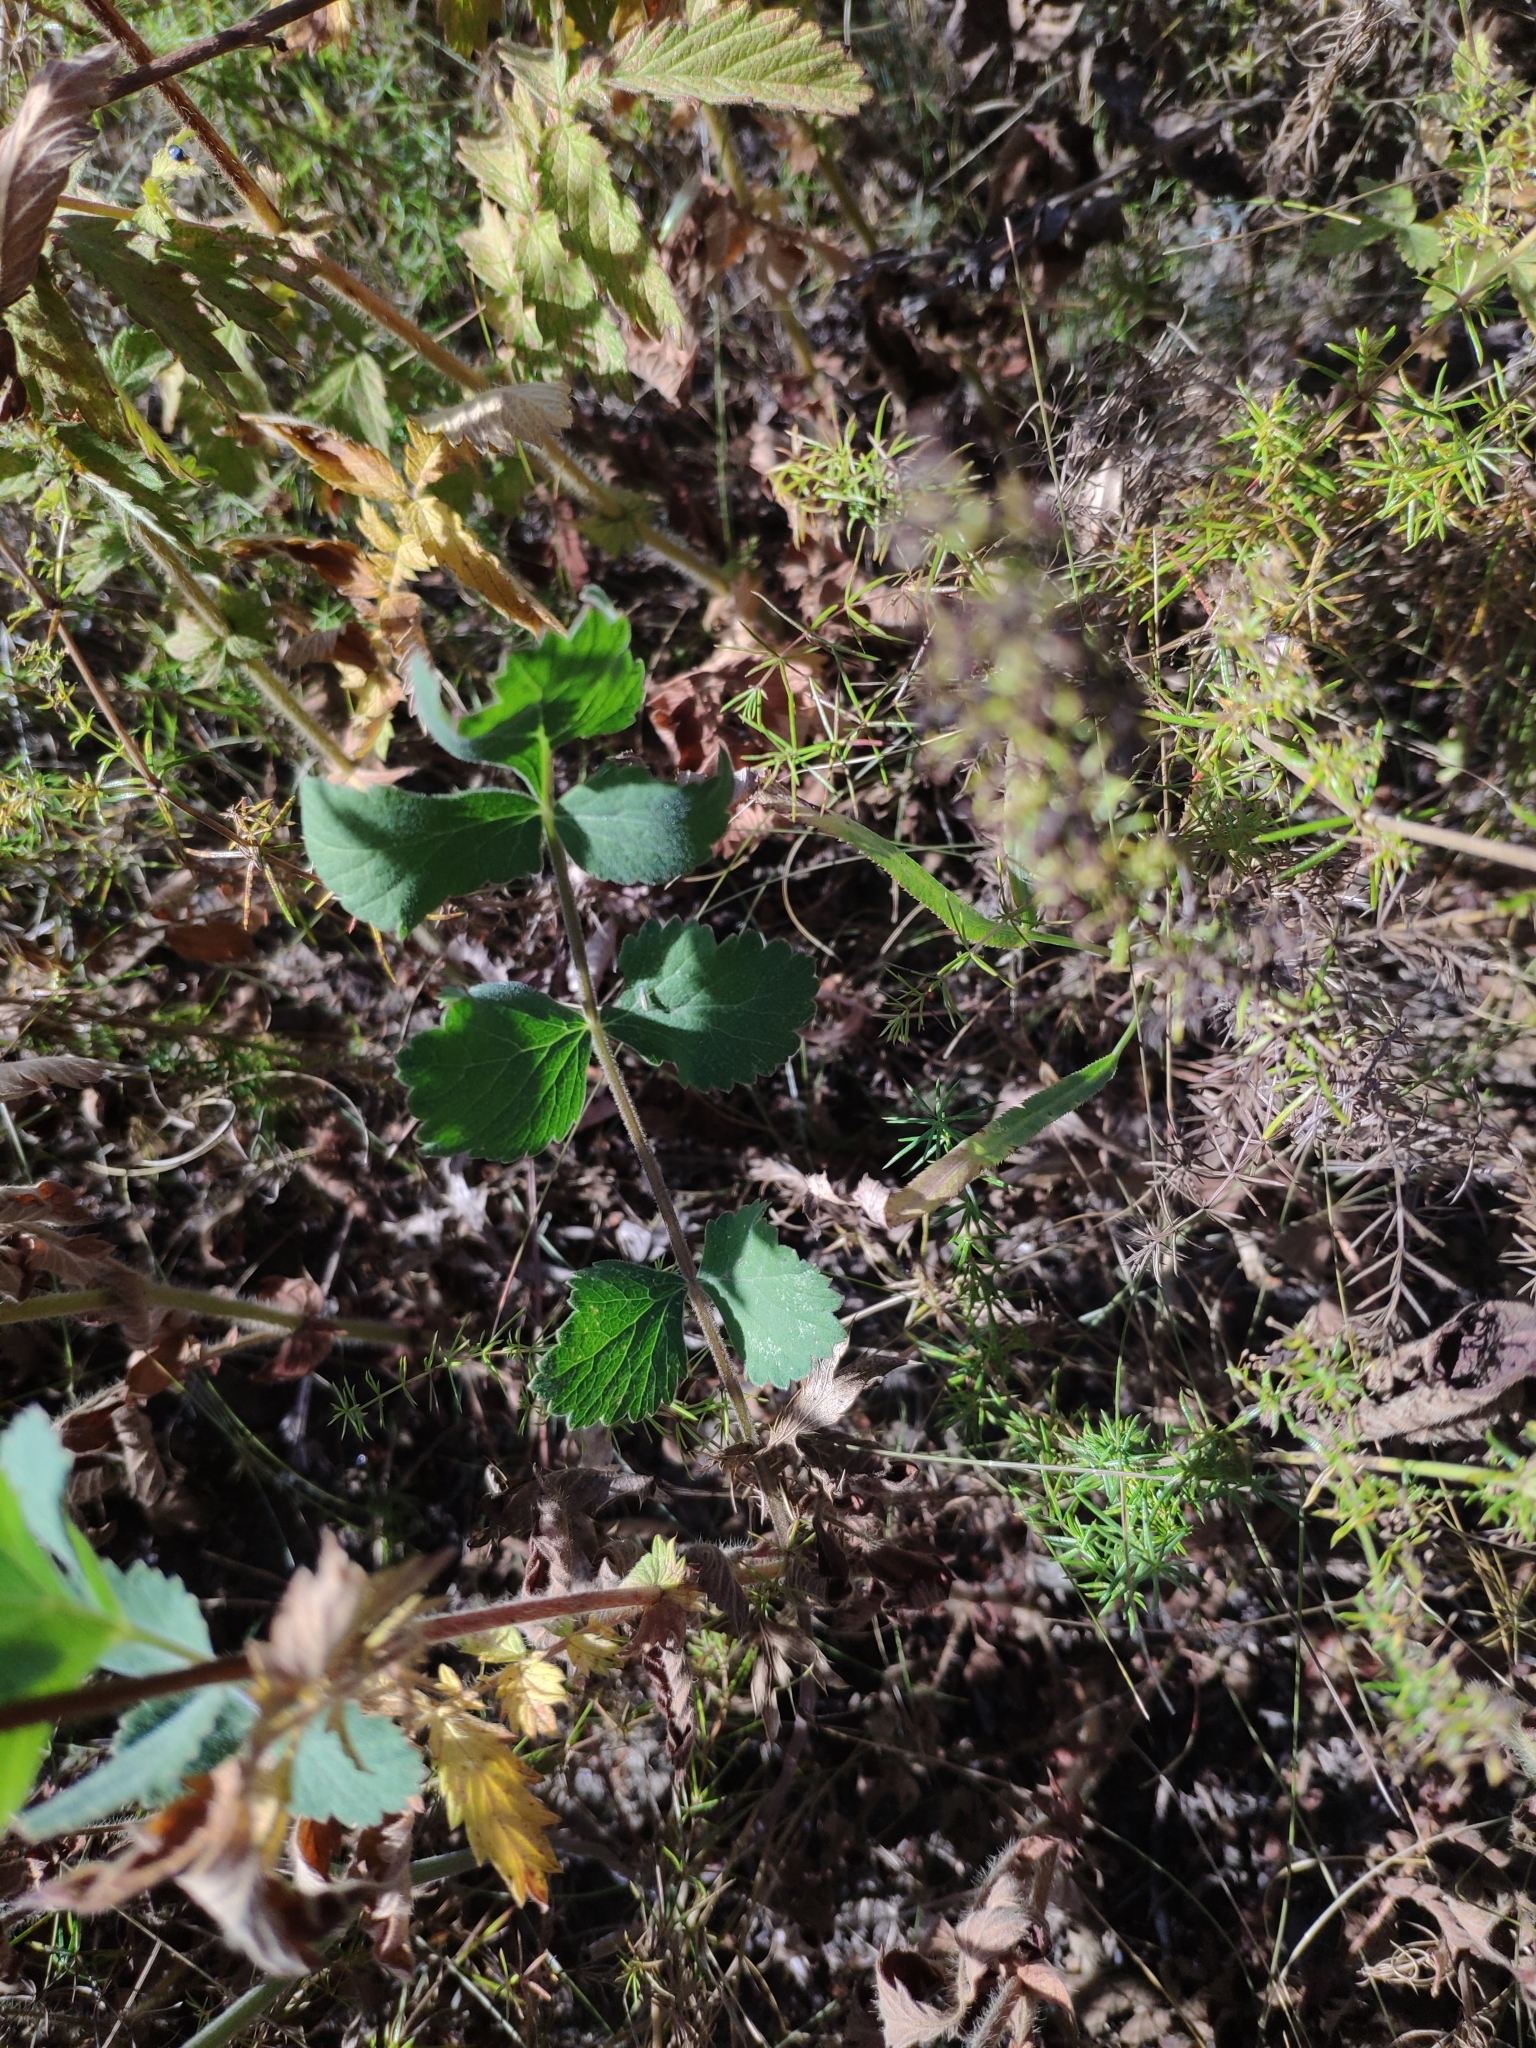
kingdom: Plantae
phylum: Tracheophyta
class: Magnoliopsida
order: Apiales
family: Apiaceae
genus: Pimpinella
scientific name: Pimpinella saxifraga
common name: Burnet-saxifrage
